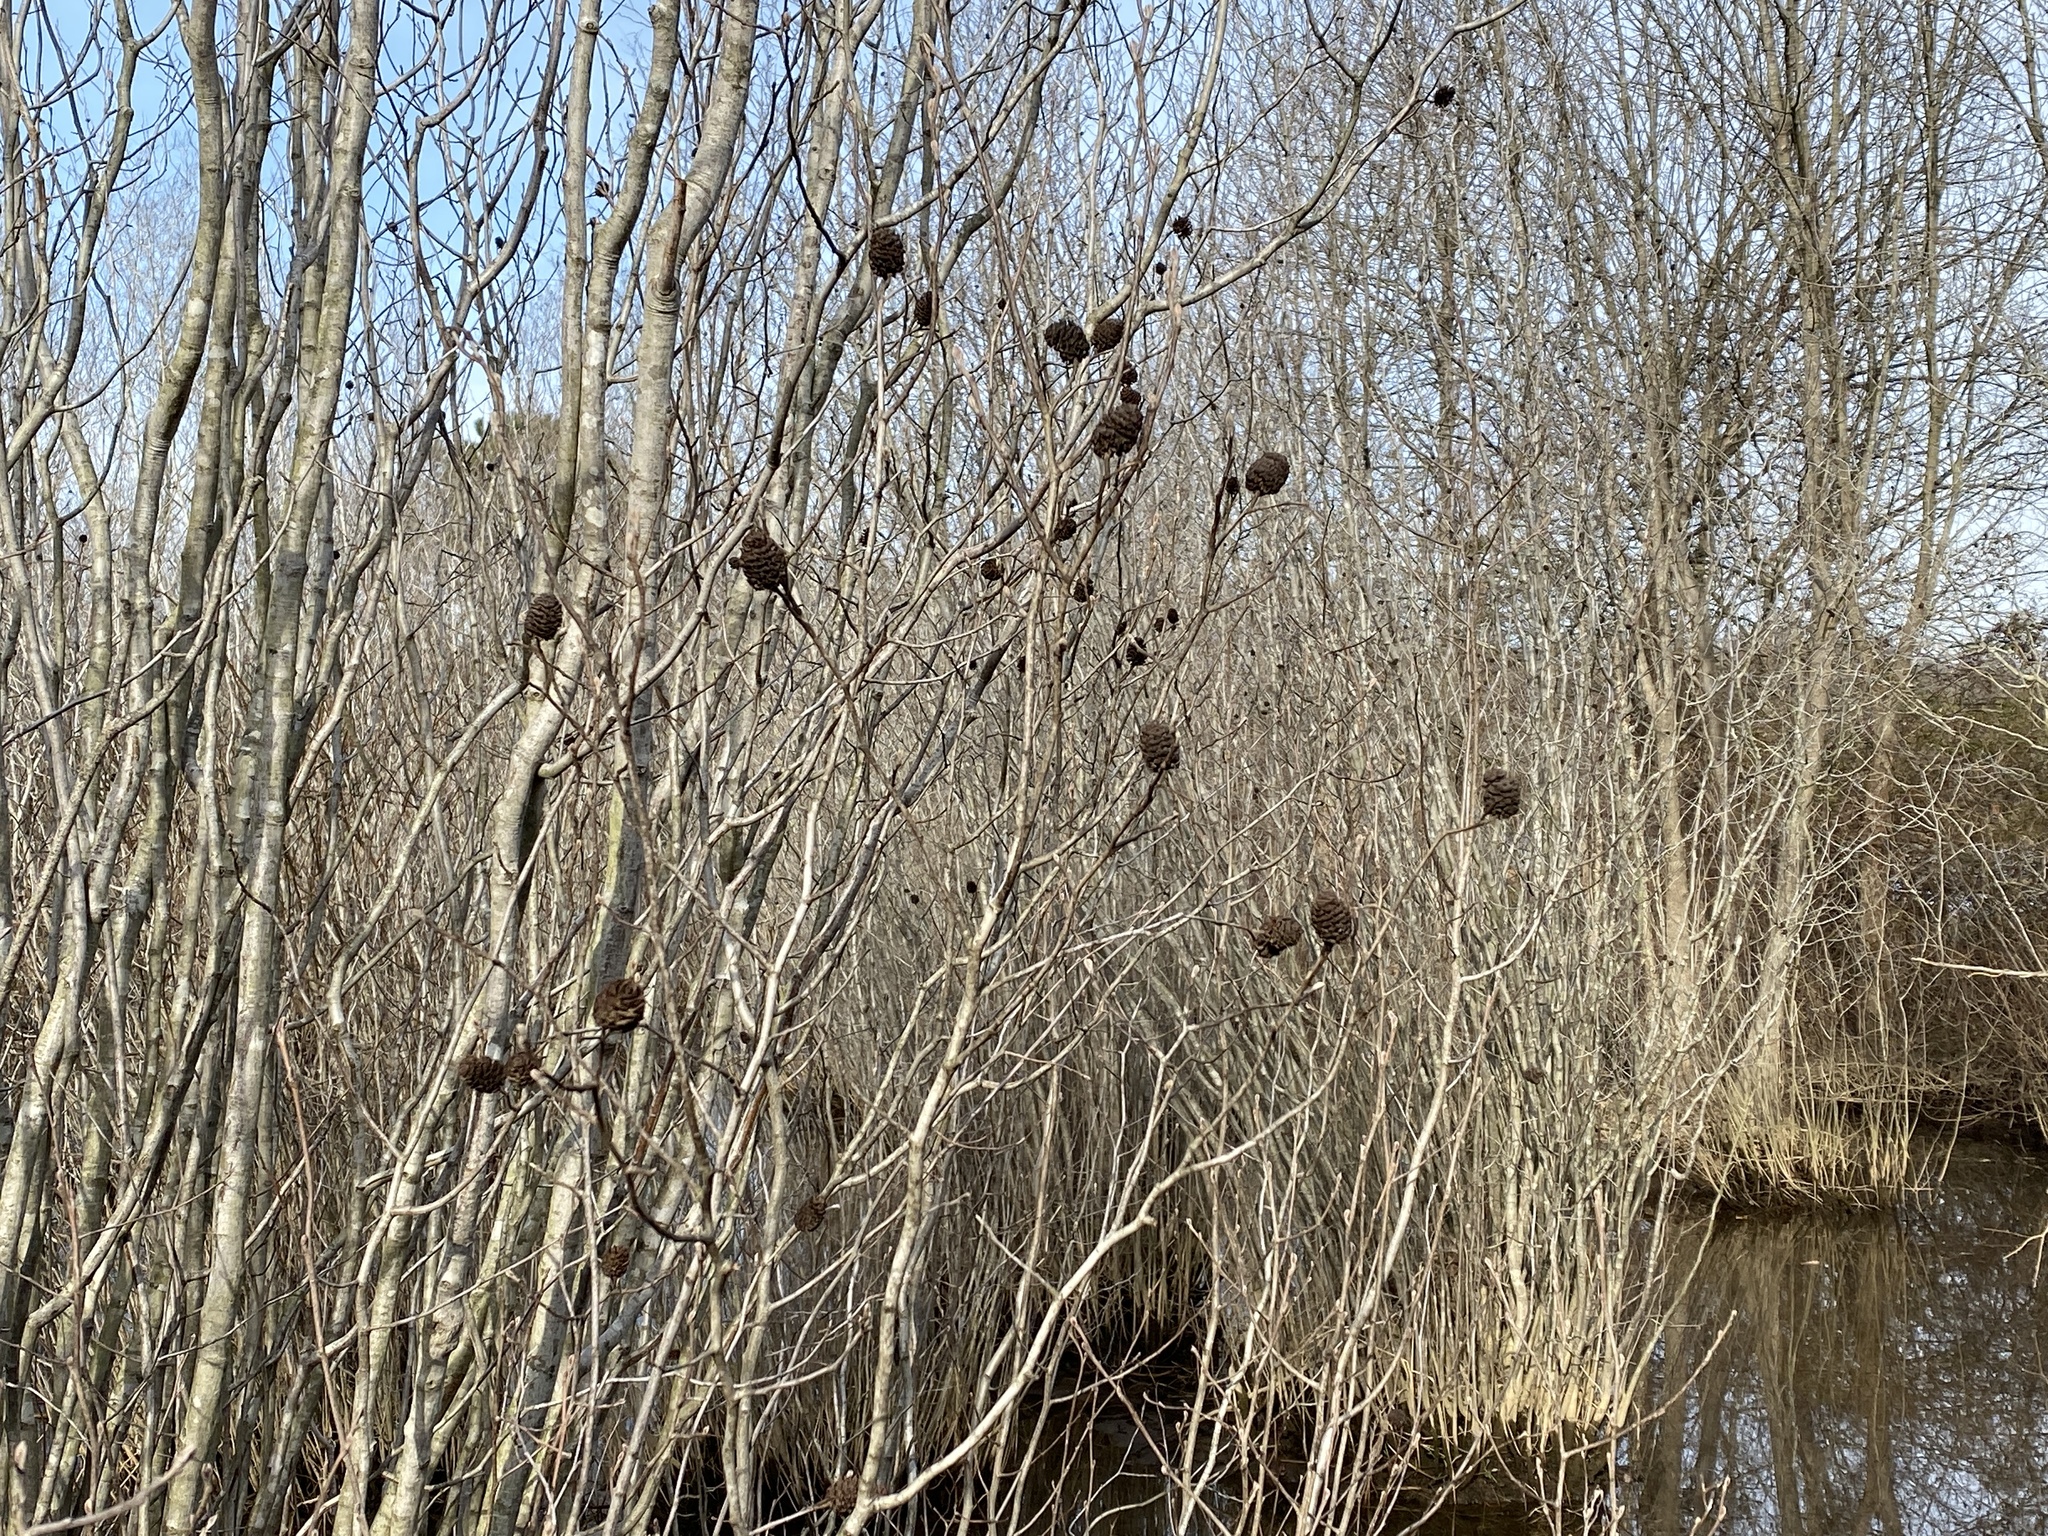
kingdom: Plantae
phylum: Tracheophyta
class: Magnoliopsida
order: Fagales
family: Betulaceae
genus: Alnus
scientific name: Alnus maritima
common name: Seaside alder
